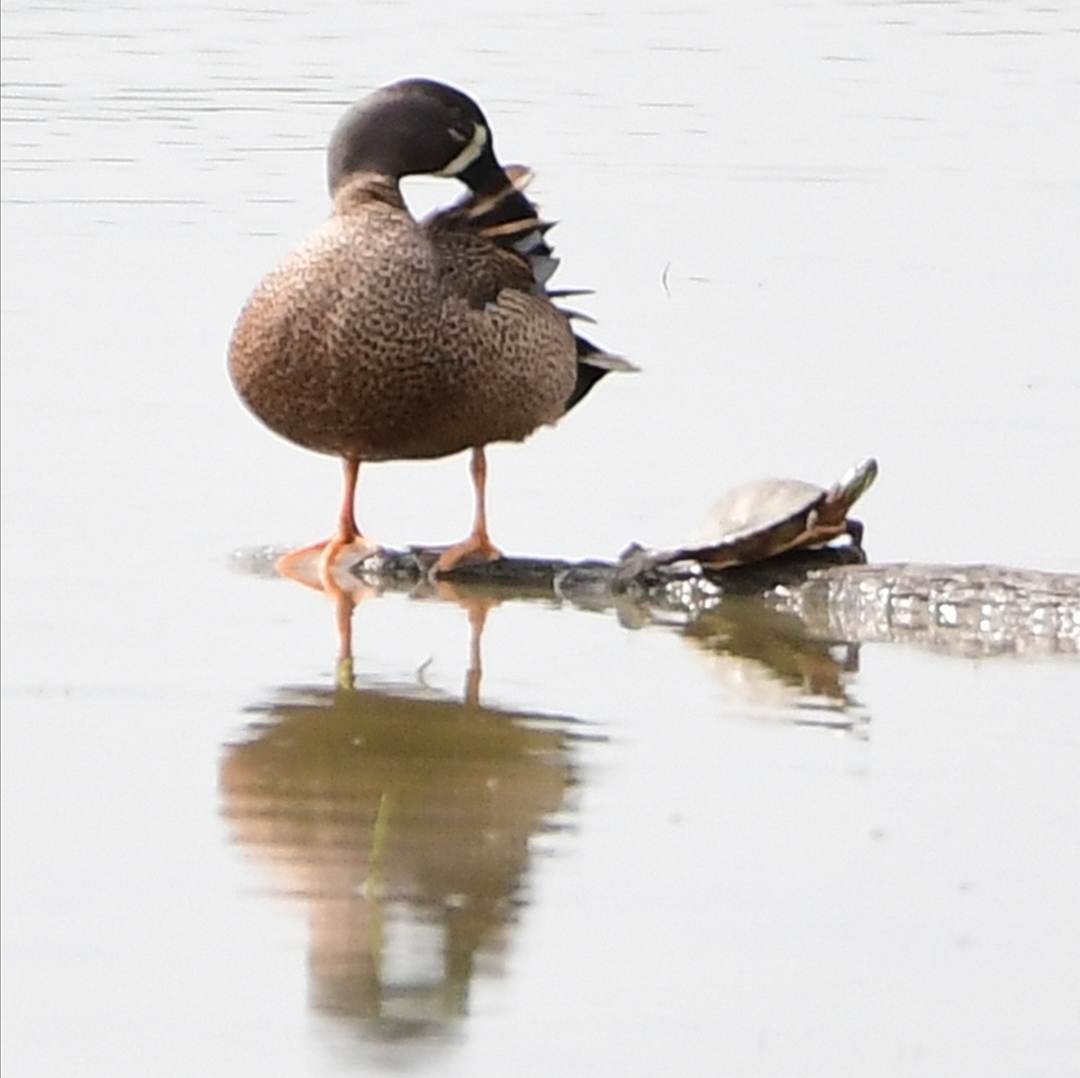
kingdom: Animalia
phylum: Chordata
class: Aves
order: Anseriformes
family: Anatidae
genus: Spatula
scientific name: Spatula discors
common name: Blue-winged teal
